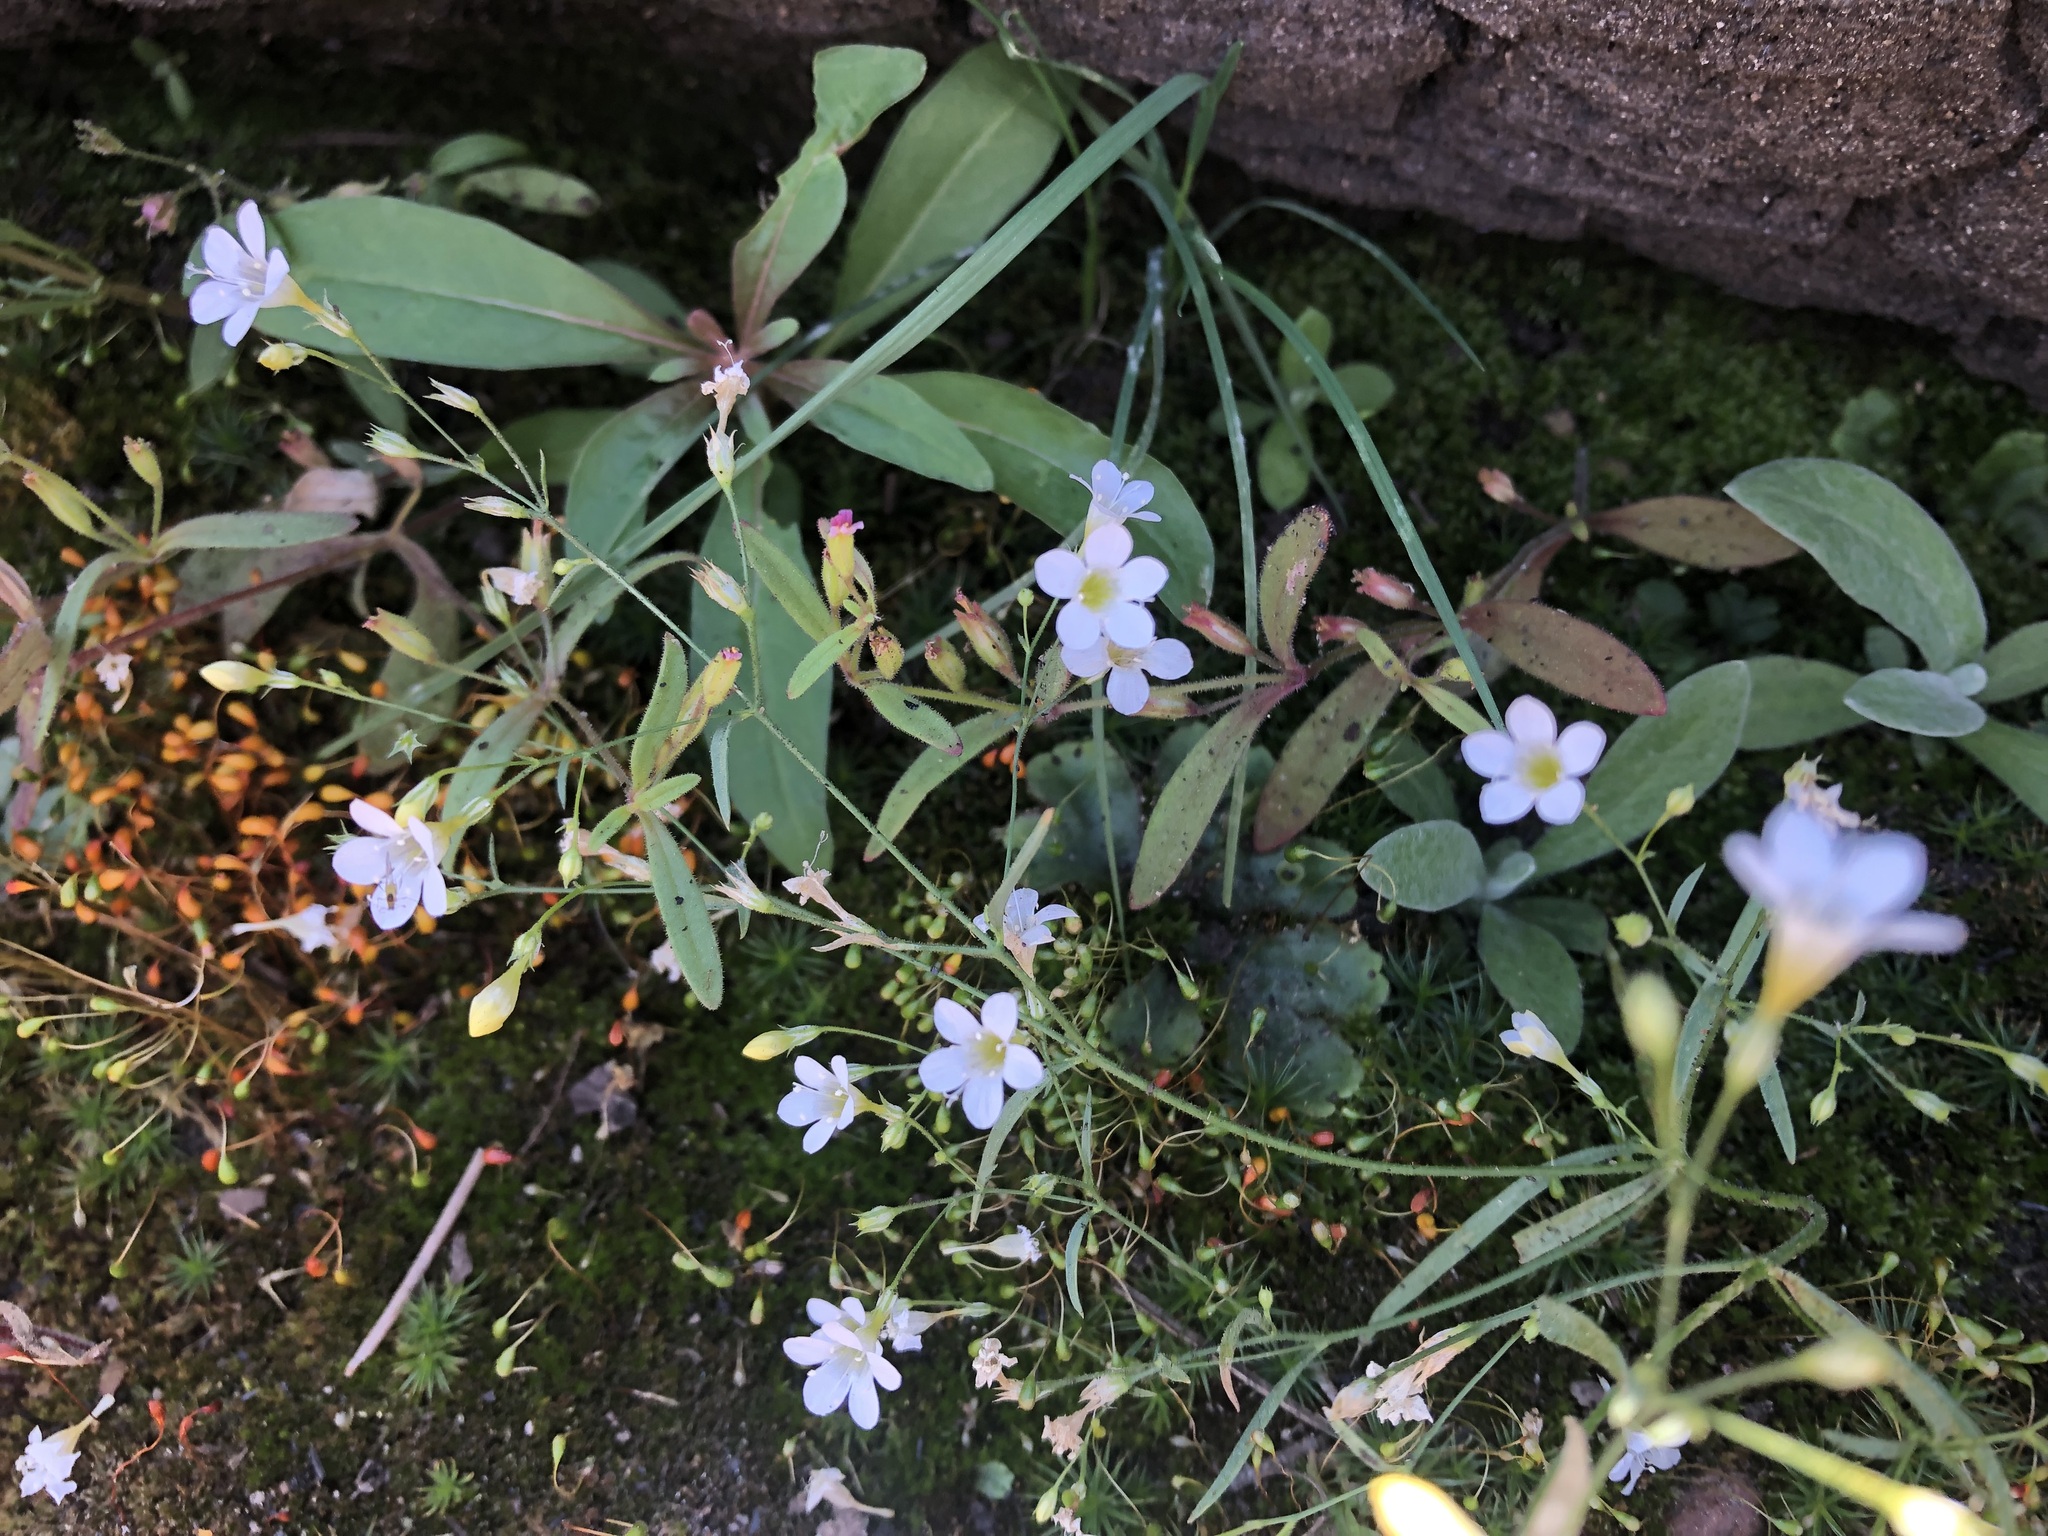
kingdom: Plantae
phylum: Tracheophyta
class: Magnoliopsida
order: Ericales
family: Polemoniaceae
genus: Navarretia
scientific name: Navarretia leptalea
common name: Bridges' pincushionplant
